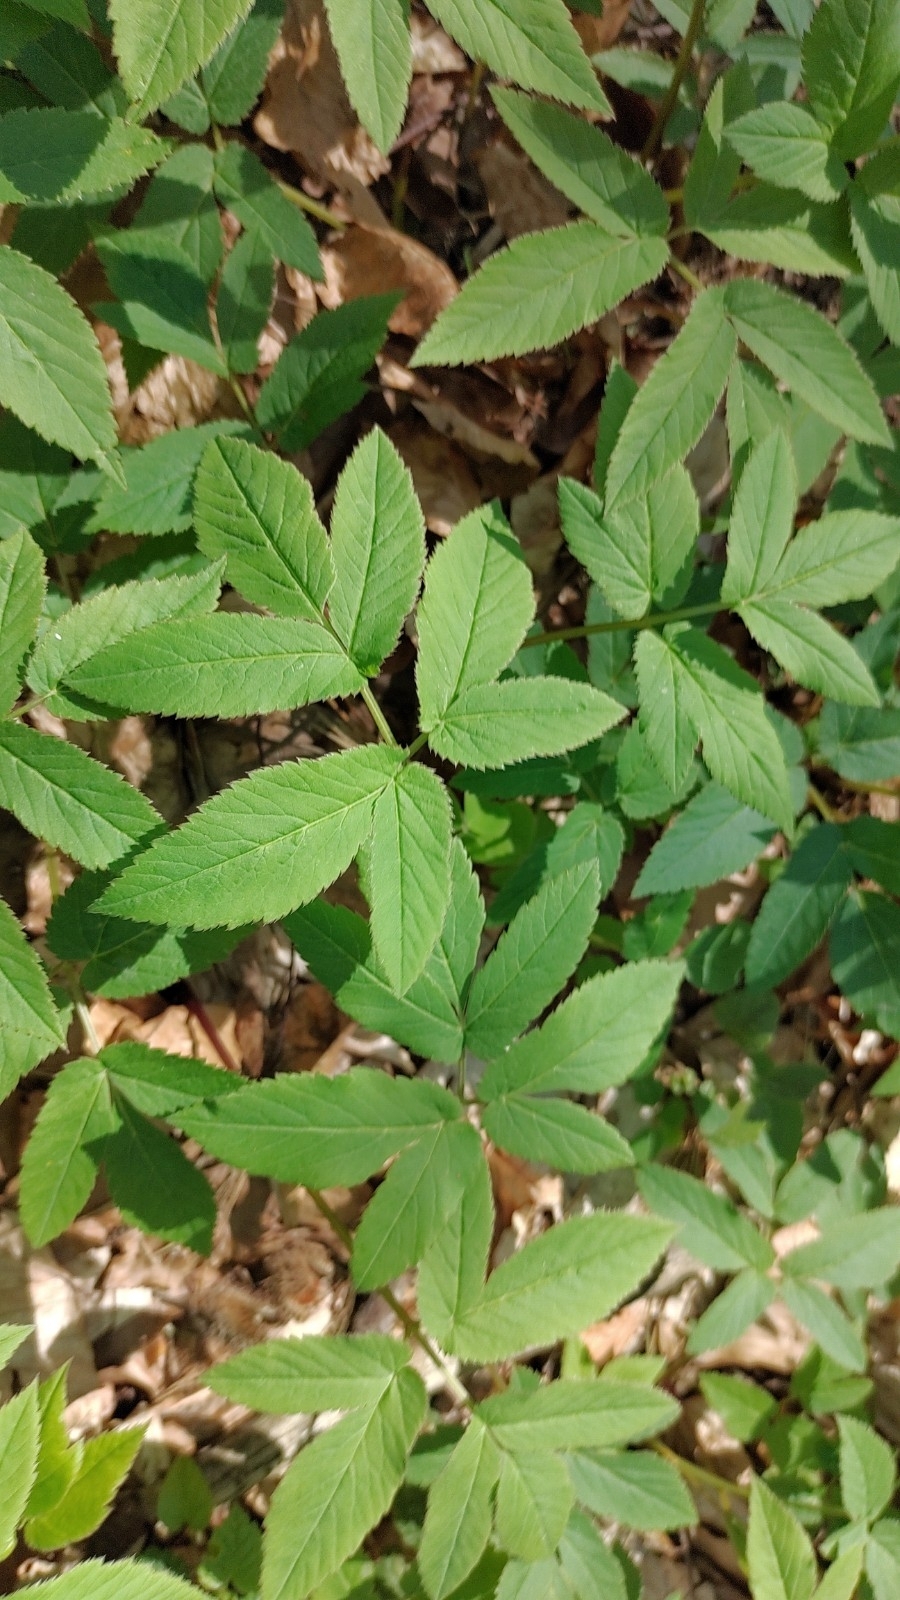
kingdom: Plantae
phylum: Tracheophyta
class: Magnoliopsida
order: Apiales
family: Apiaceae
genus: Aegopodium
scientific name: Aegopodium podagraria
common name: Ground-elder
